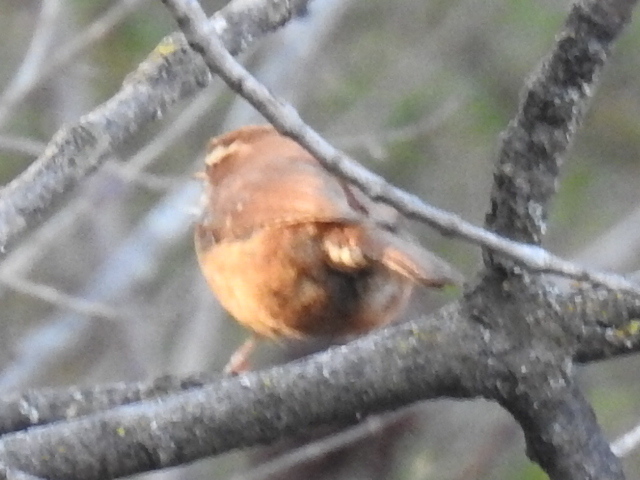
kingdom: Animalia
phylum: Chordata
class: Aves
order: Passeriformes
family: Troglodytidae
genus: Thryothorus
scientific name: Thryothorus ludovicianus
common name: Carolina wren
